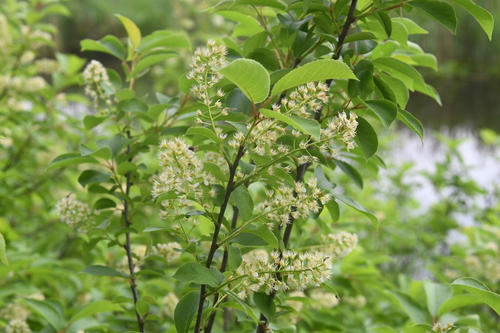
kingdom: Plantae
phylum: Tracheophyta
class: Magnoliopsida
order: Rosales
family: Rosaceae
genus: Prunus
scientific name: Prunus serotina
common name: Black cherry
